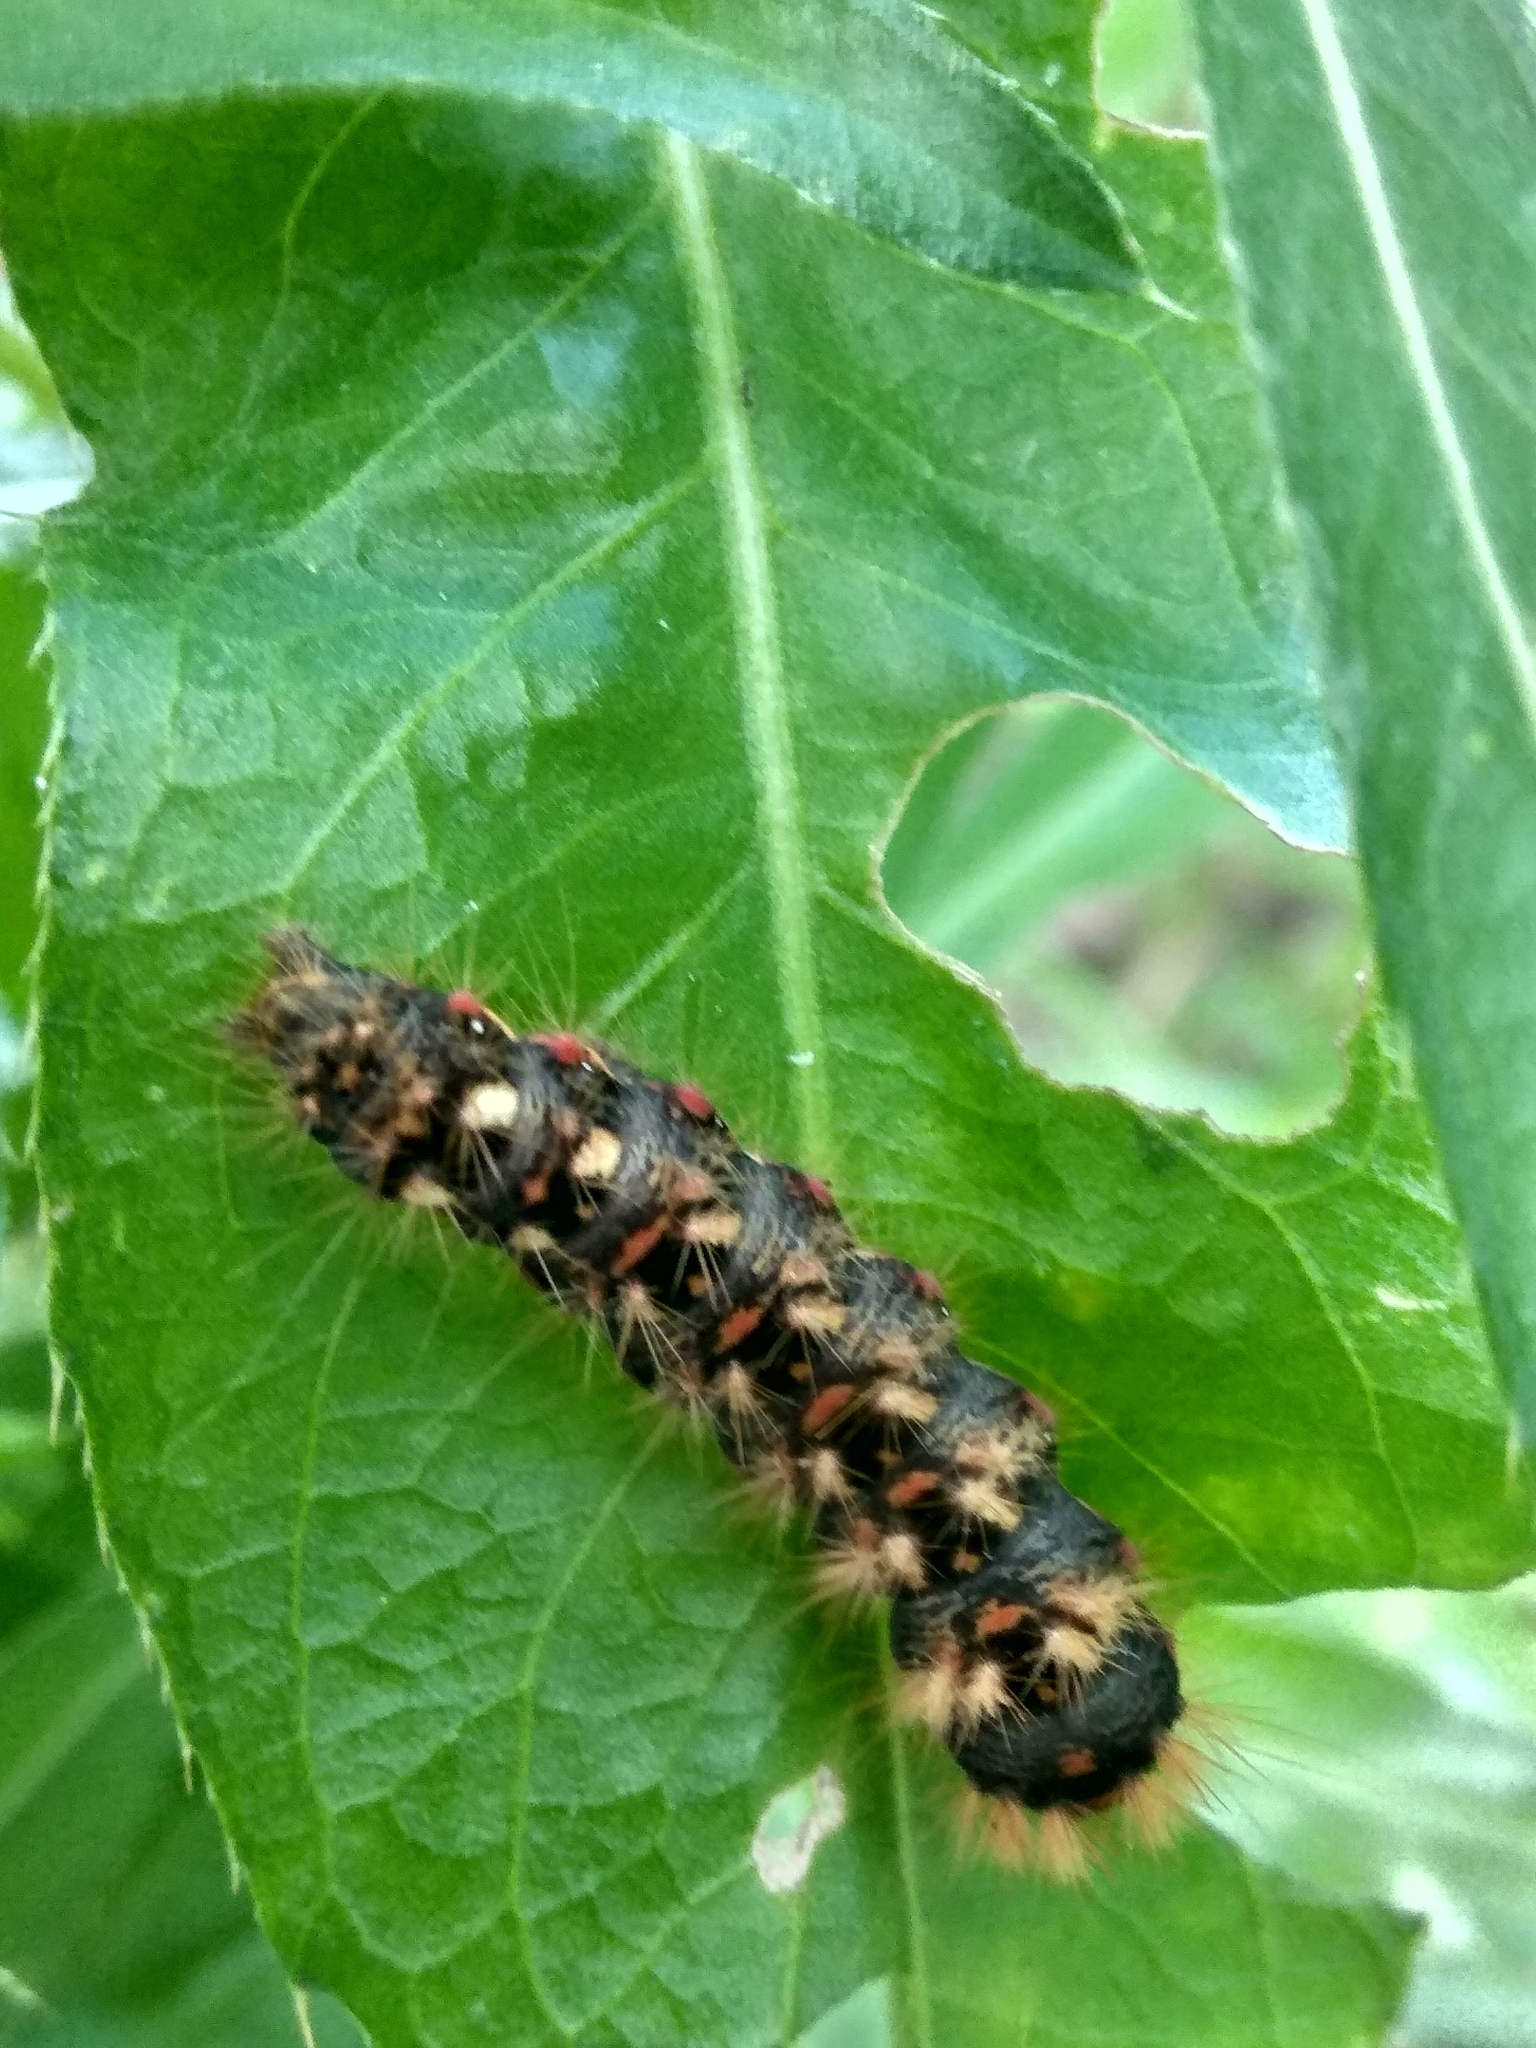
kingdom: Animalia
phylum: Arthropoda
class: Insecta
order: Lepidoptera
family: Noctuidae
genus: Acronicta
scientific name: Acronicta rumicis
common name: Knot grass
